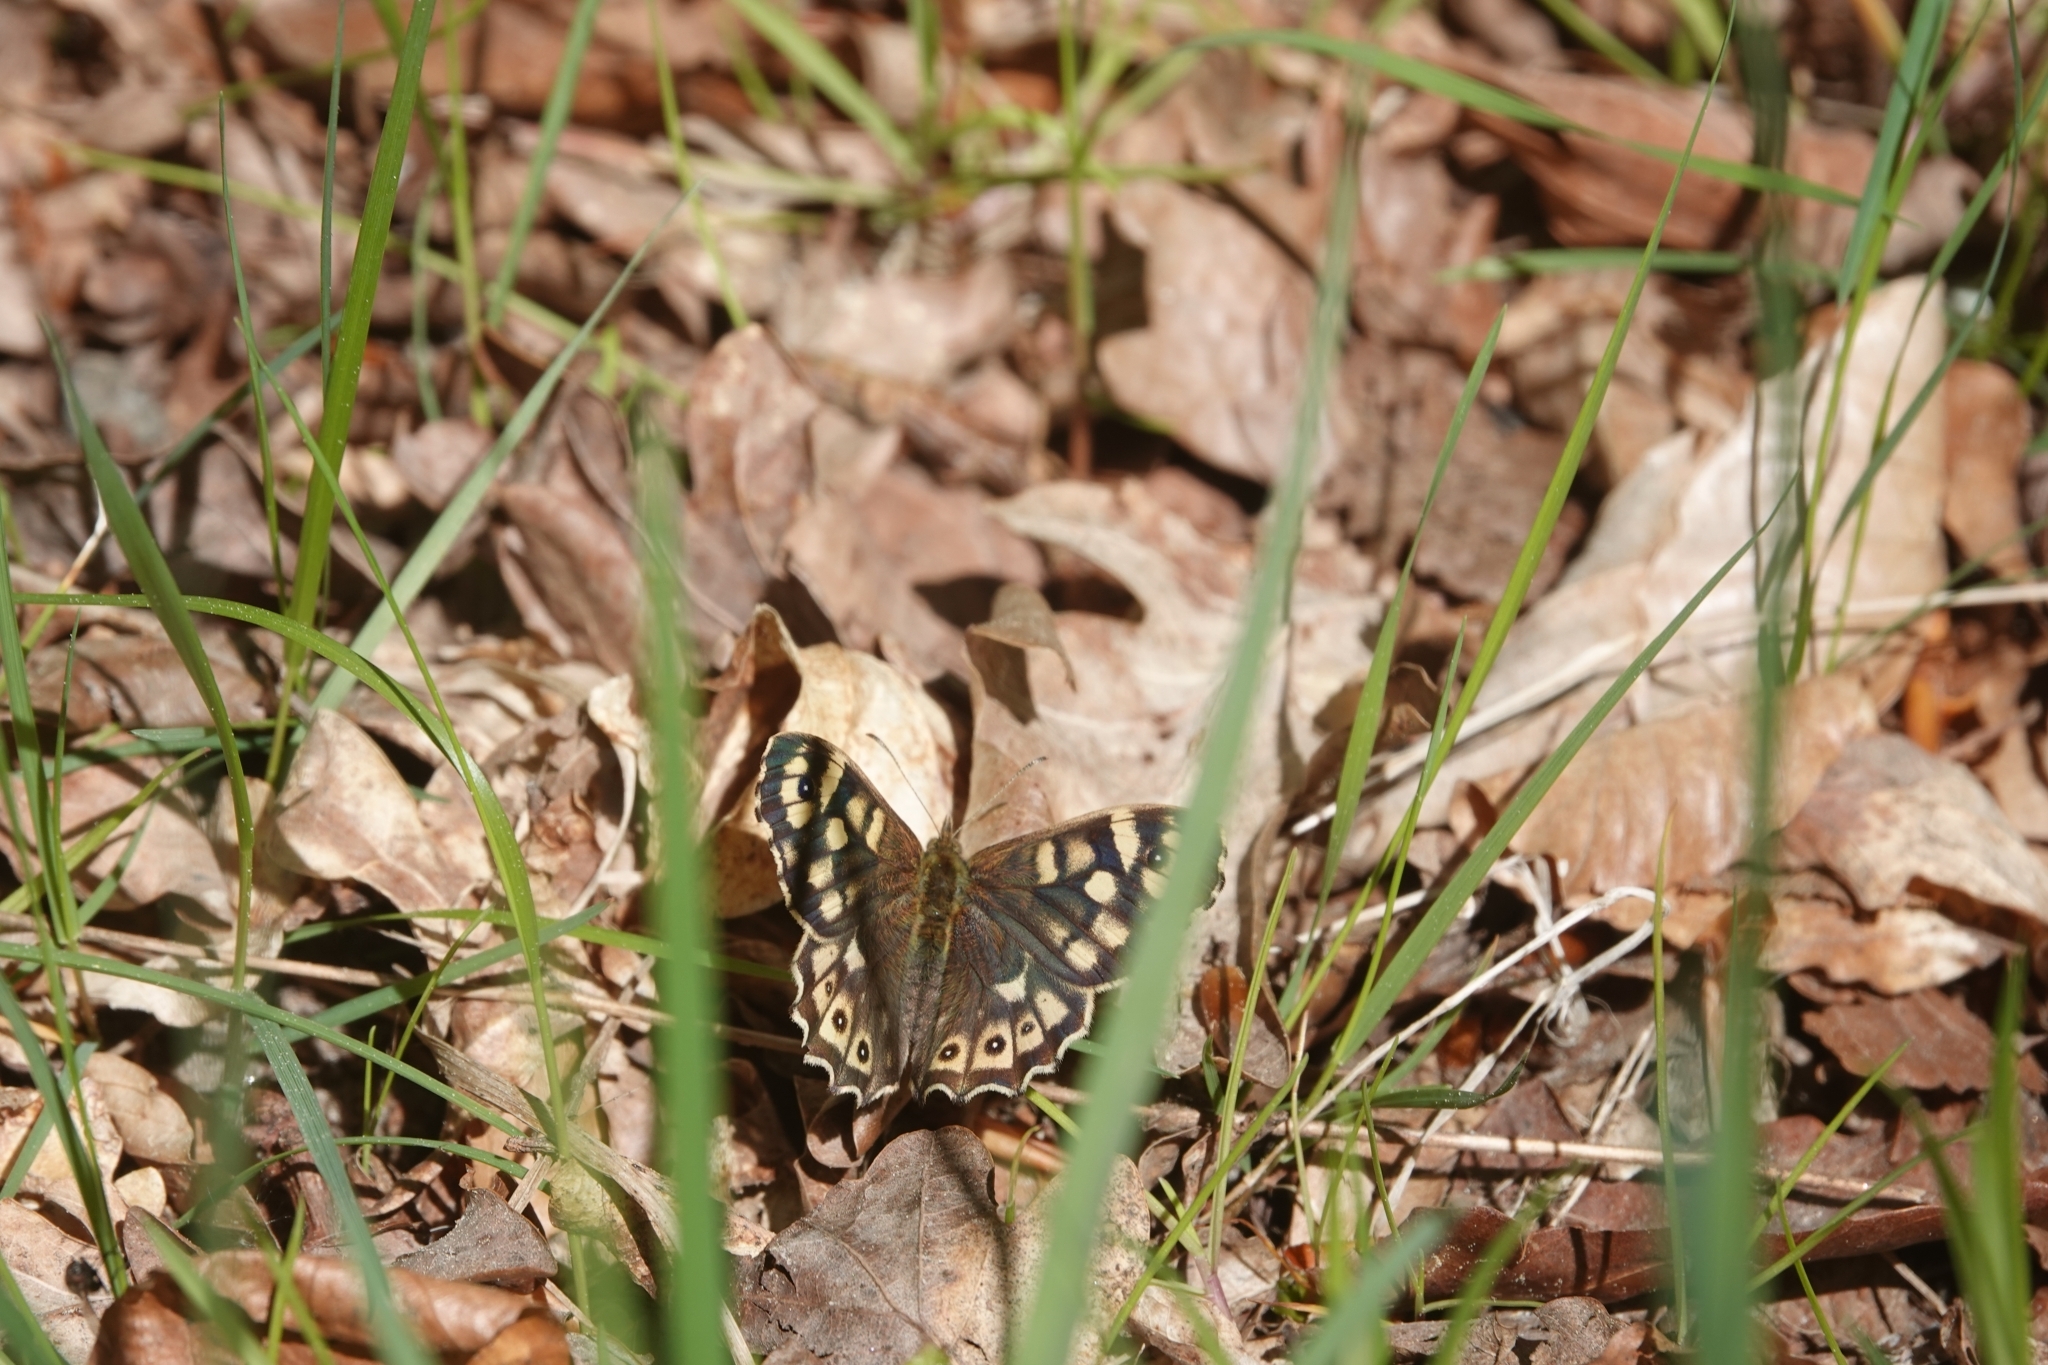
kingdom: Animalia
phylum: Arthropoda
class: Insecta
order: Lepidoptera
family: Nymphalidae
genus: Pararge
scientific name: Pararge aegeria
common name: Speckled wood
